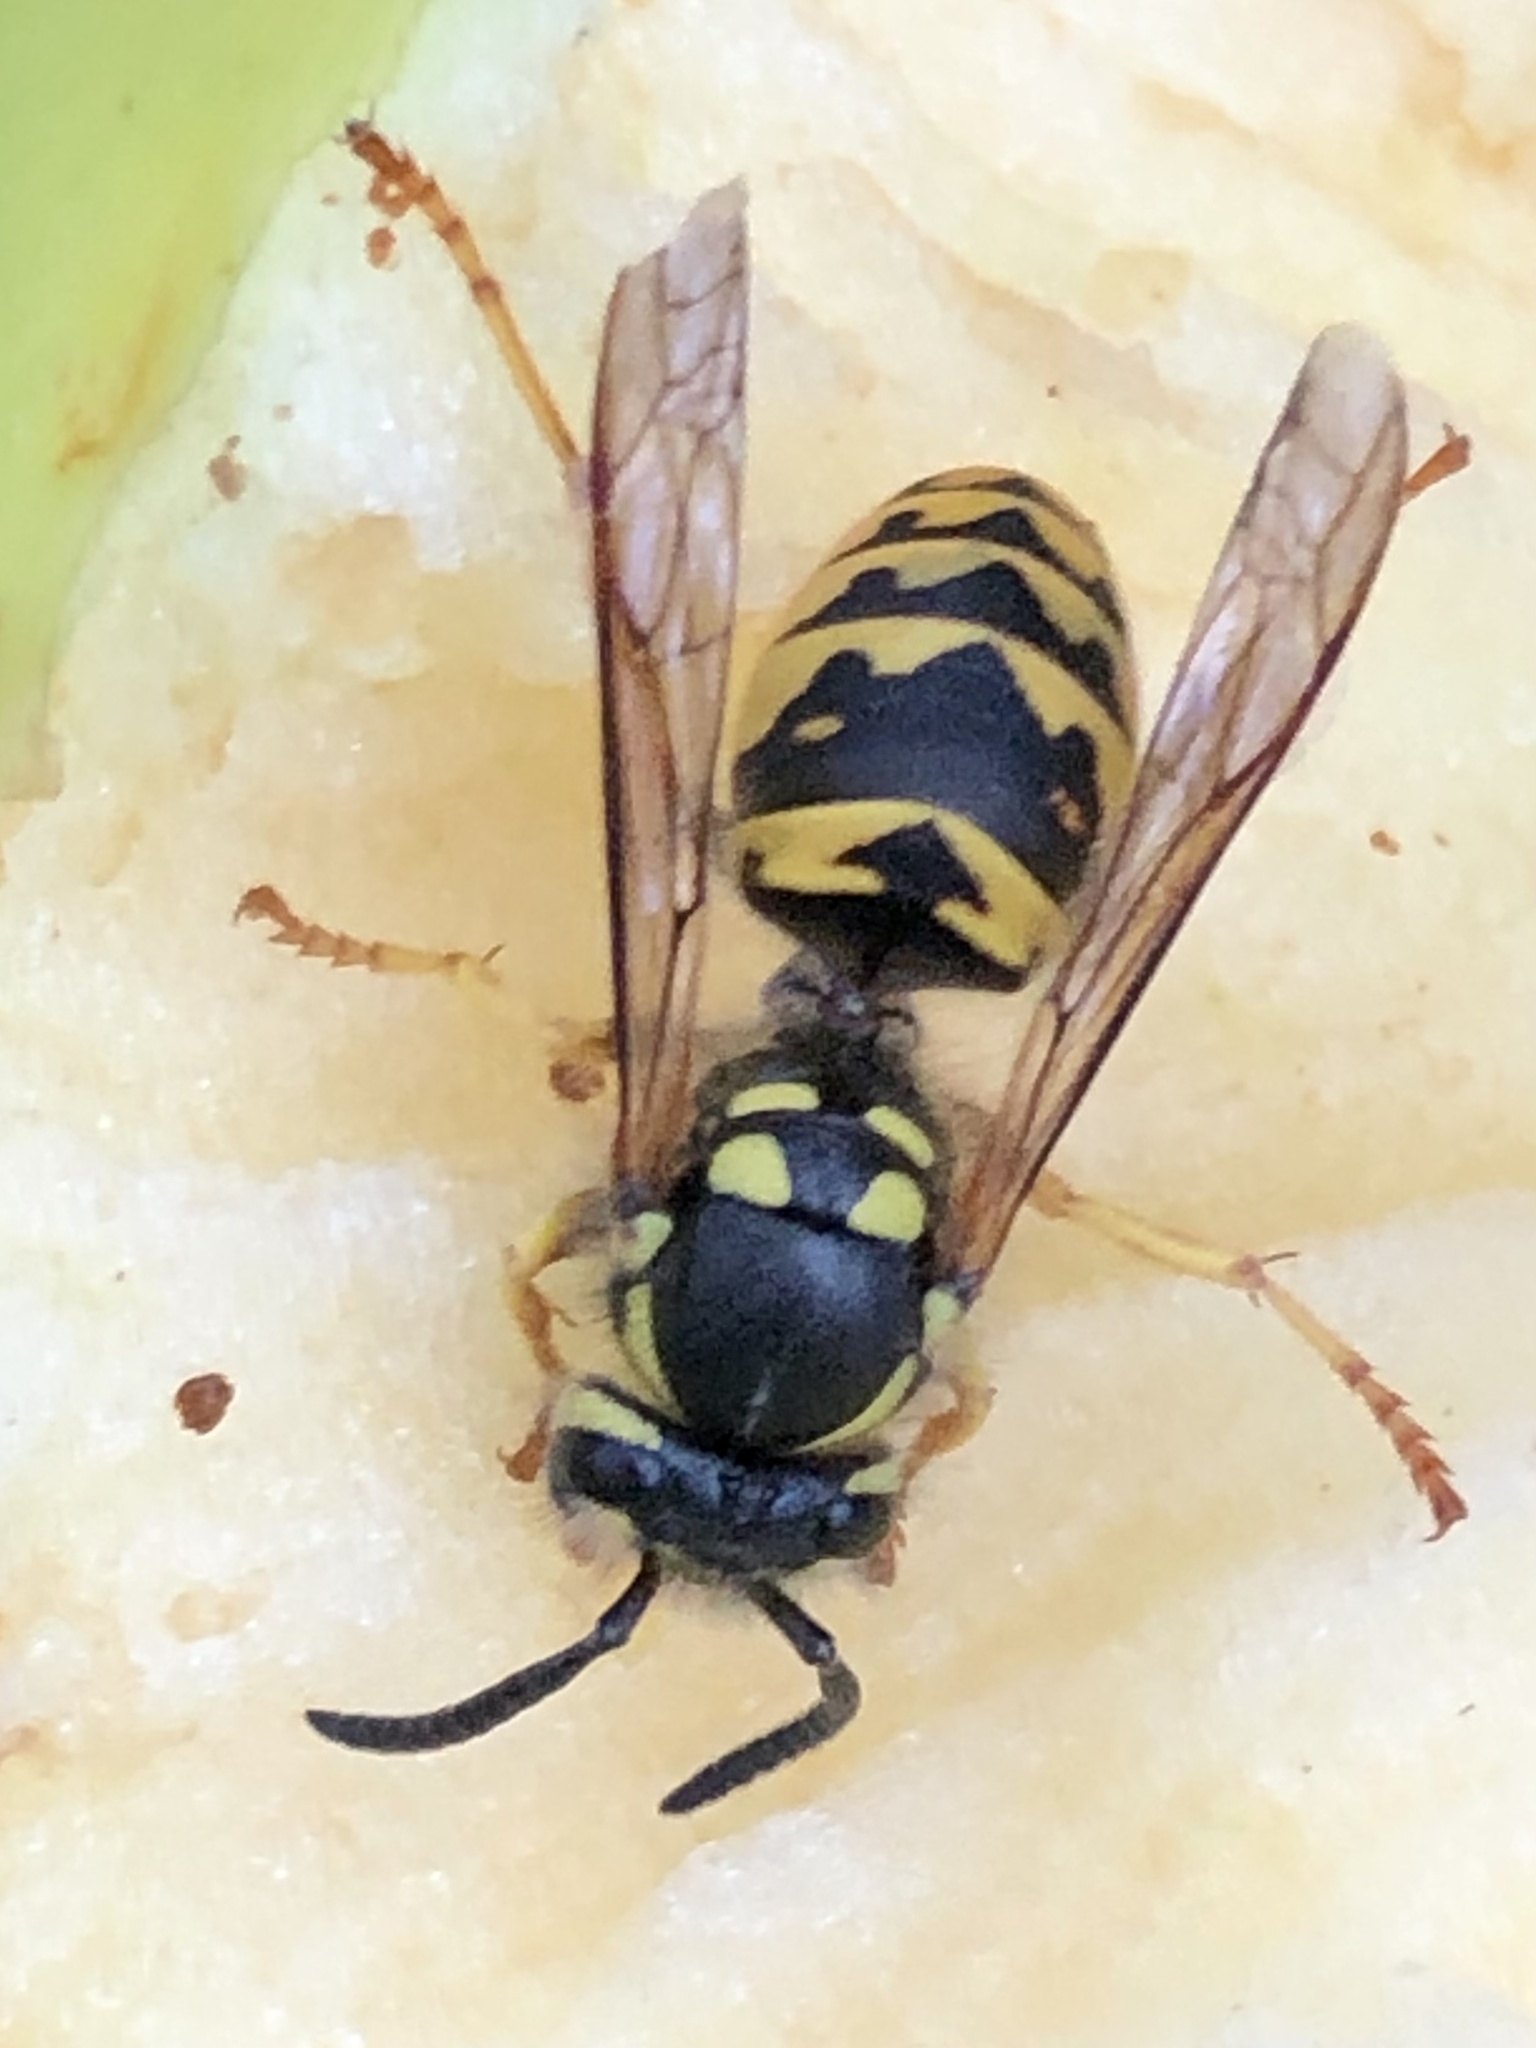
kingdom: Animalia
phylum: Arthropoda
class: Insecta
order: Hymenoptera
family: Vespidae
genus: Vespula
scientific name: Vespula germanica
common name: German wasp
